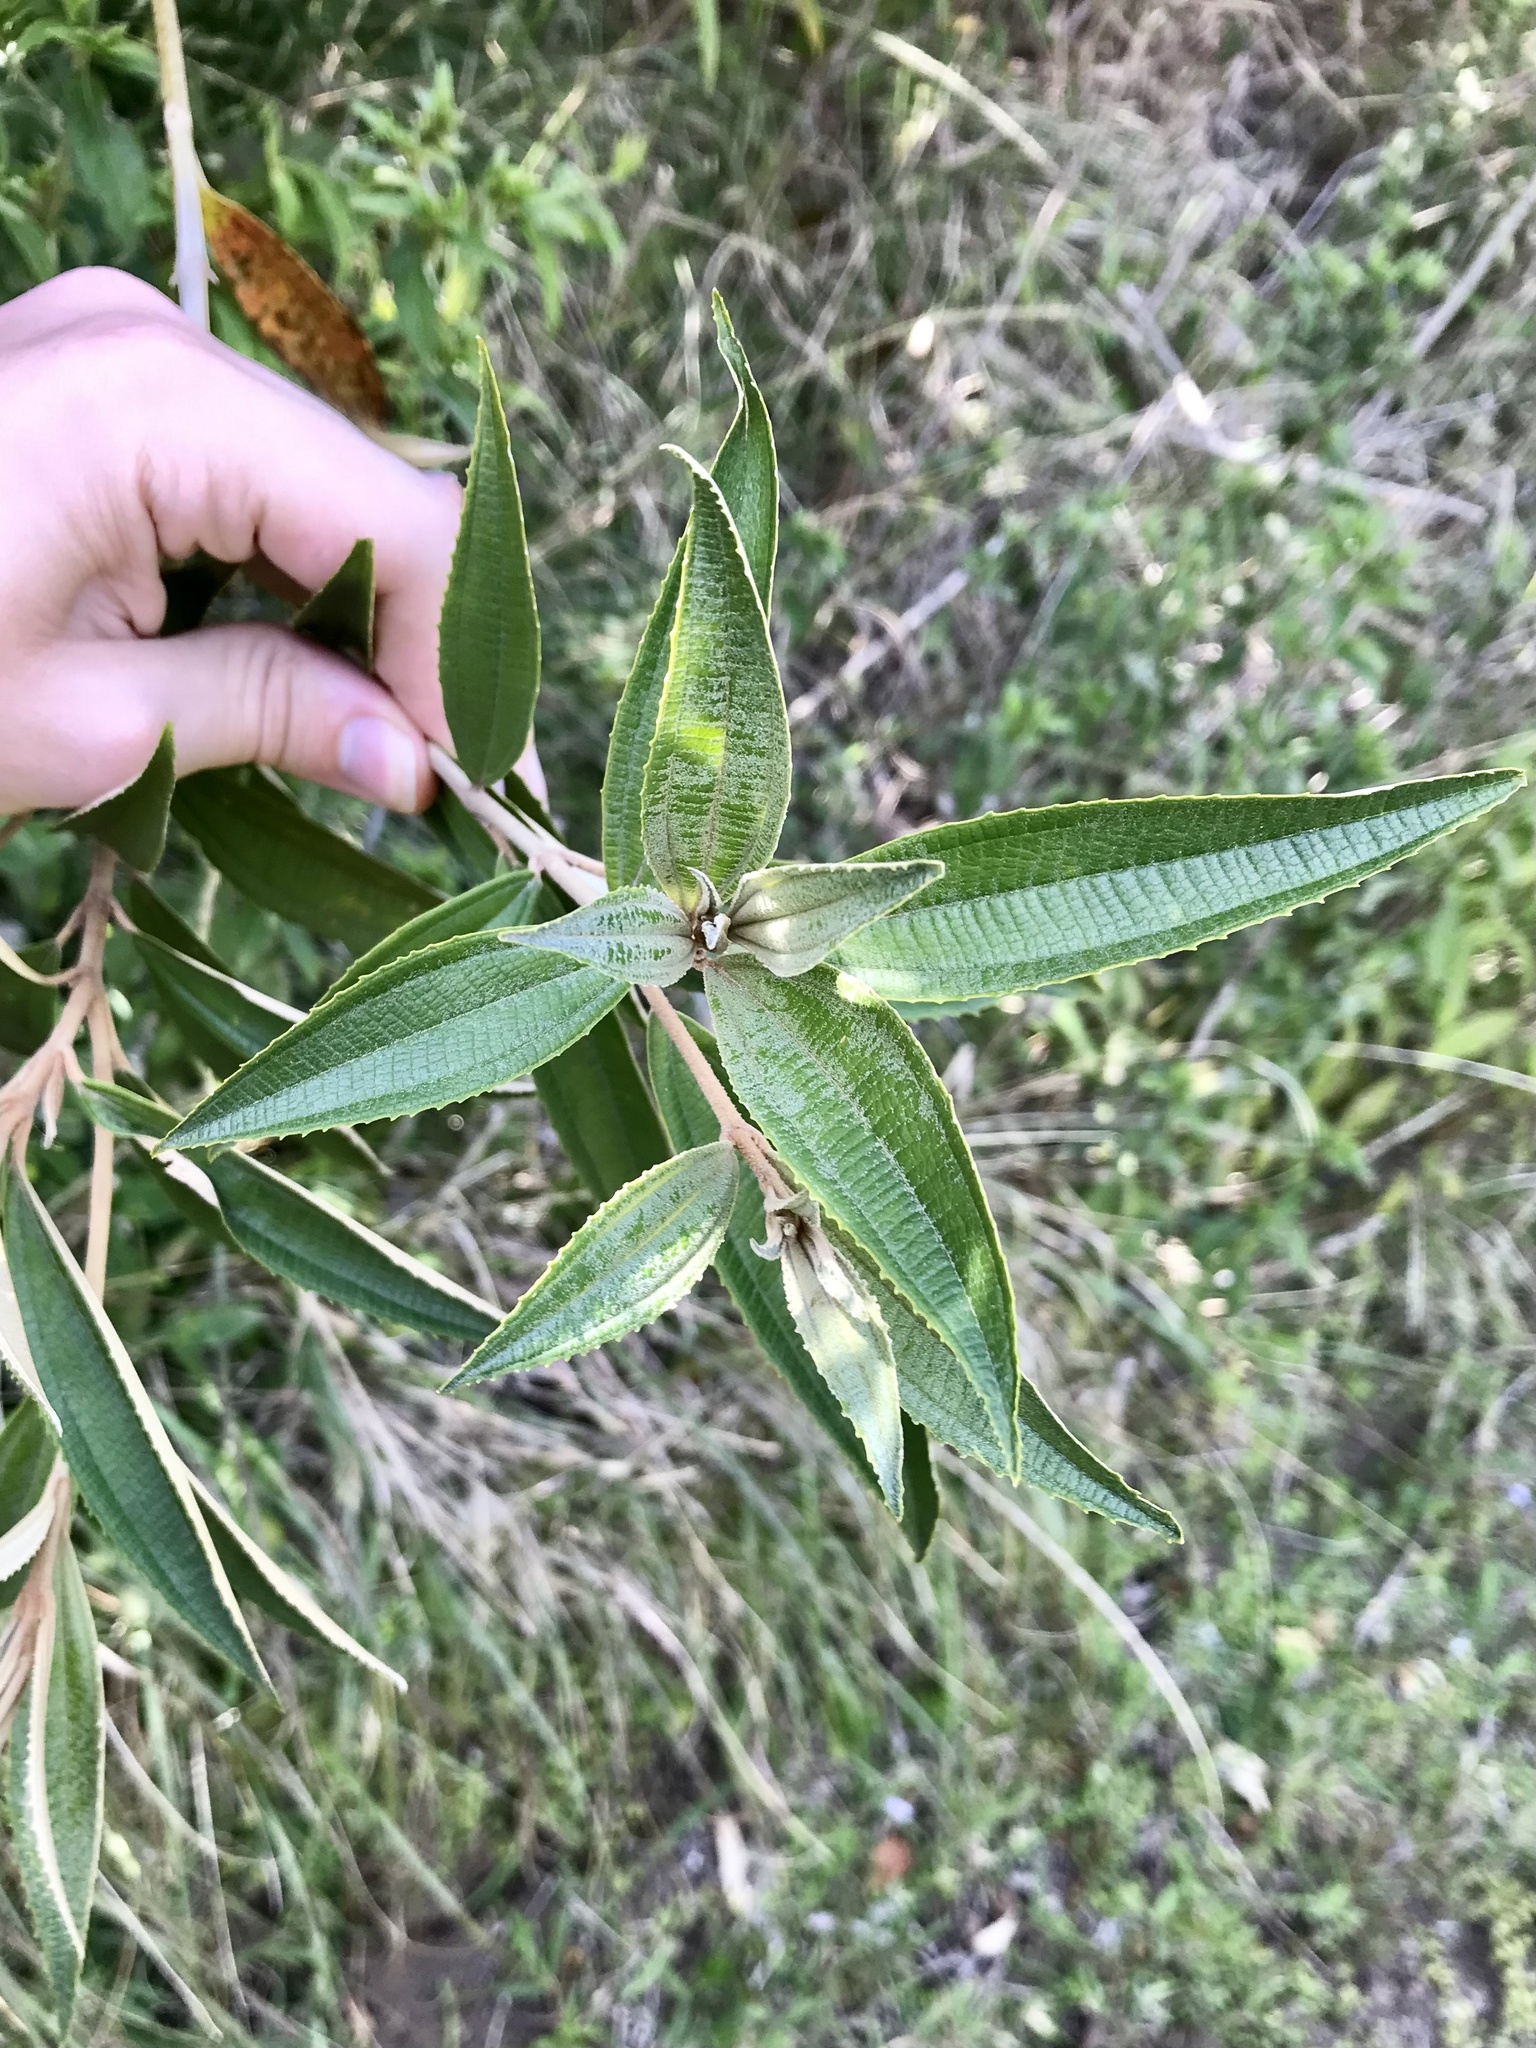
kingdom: Plantae
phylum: Tracheophyta
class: Magnoliopsida
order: Myrtales
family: Melastomataceae
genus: Miconia
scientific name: Miconia xalapensis
